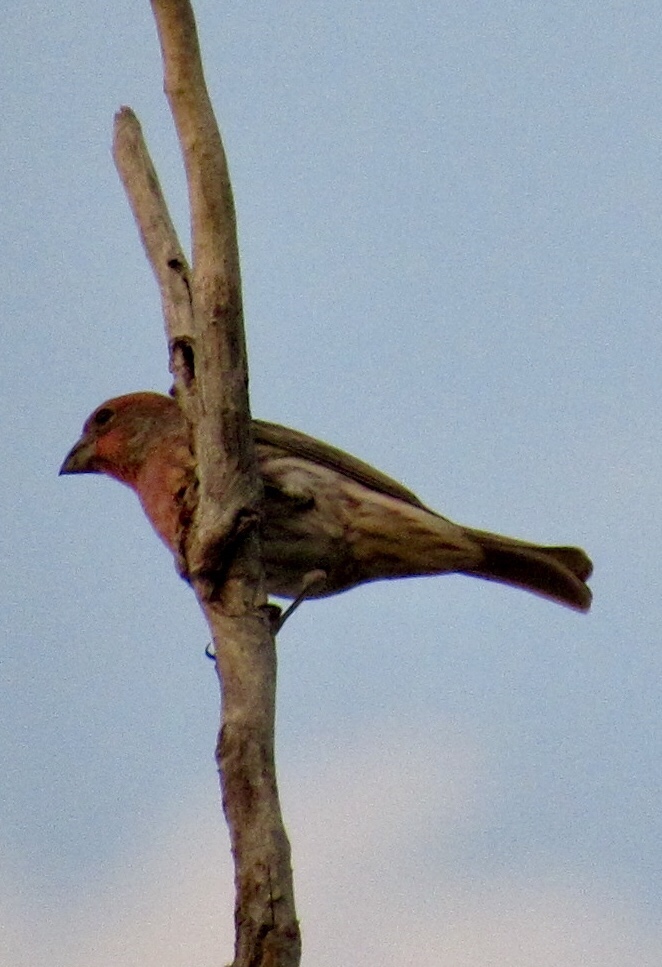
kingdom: Animalia
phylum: Chordata
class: Aves
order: Passeriformes
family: Fringillidae
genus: Haemorhous
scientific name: Haemorhous mexicanus
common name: House finch
